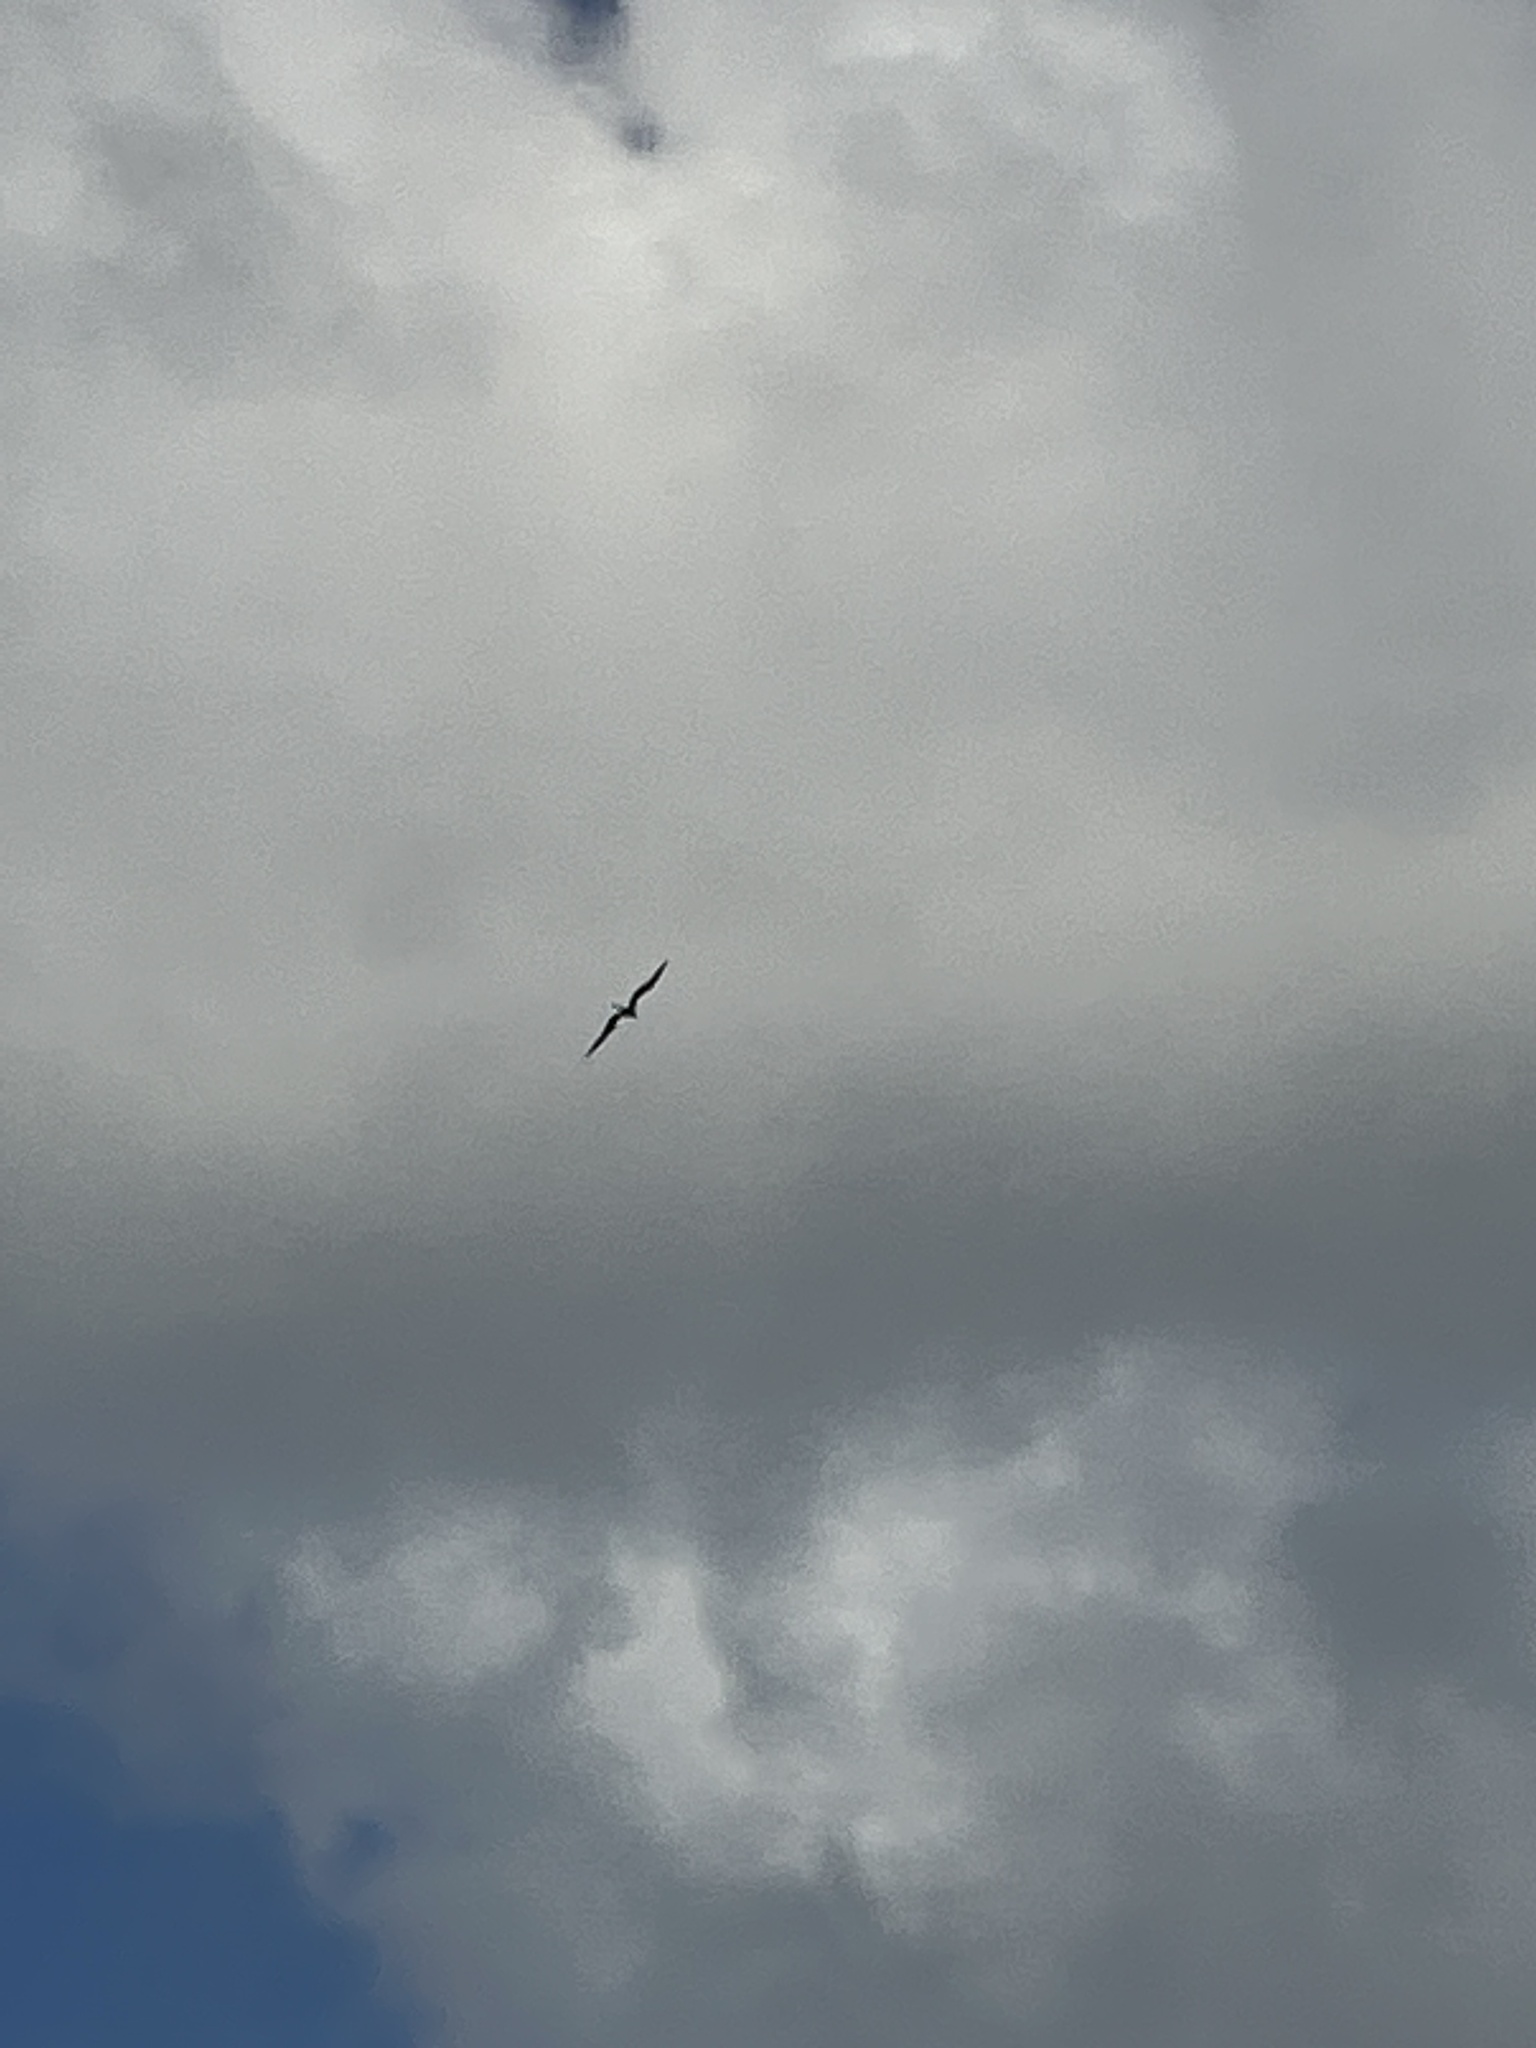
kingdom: Animalia
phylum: Chordata
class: Aves
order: Suliformes
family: Fregatidae
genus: Fregata
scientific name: Fregata magnificens
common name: Magnificent frigatebird
